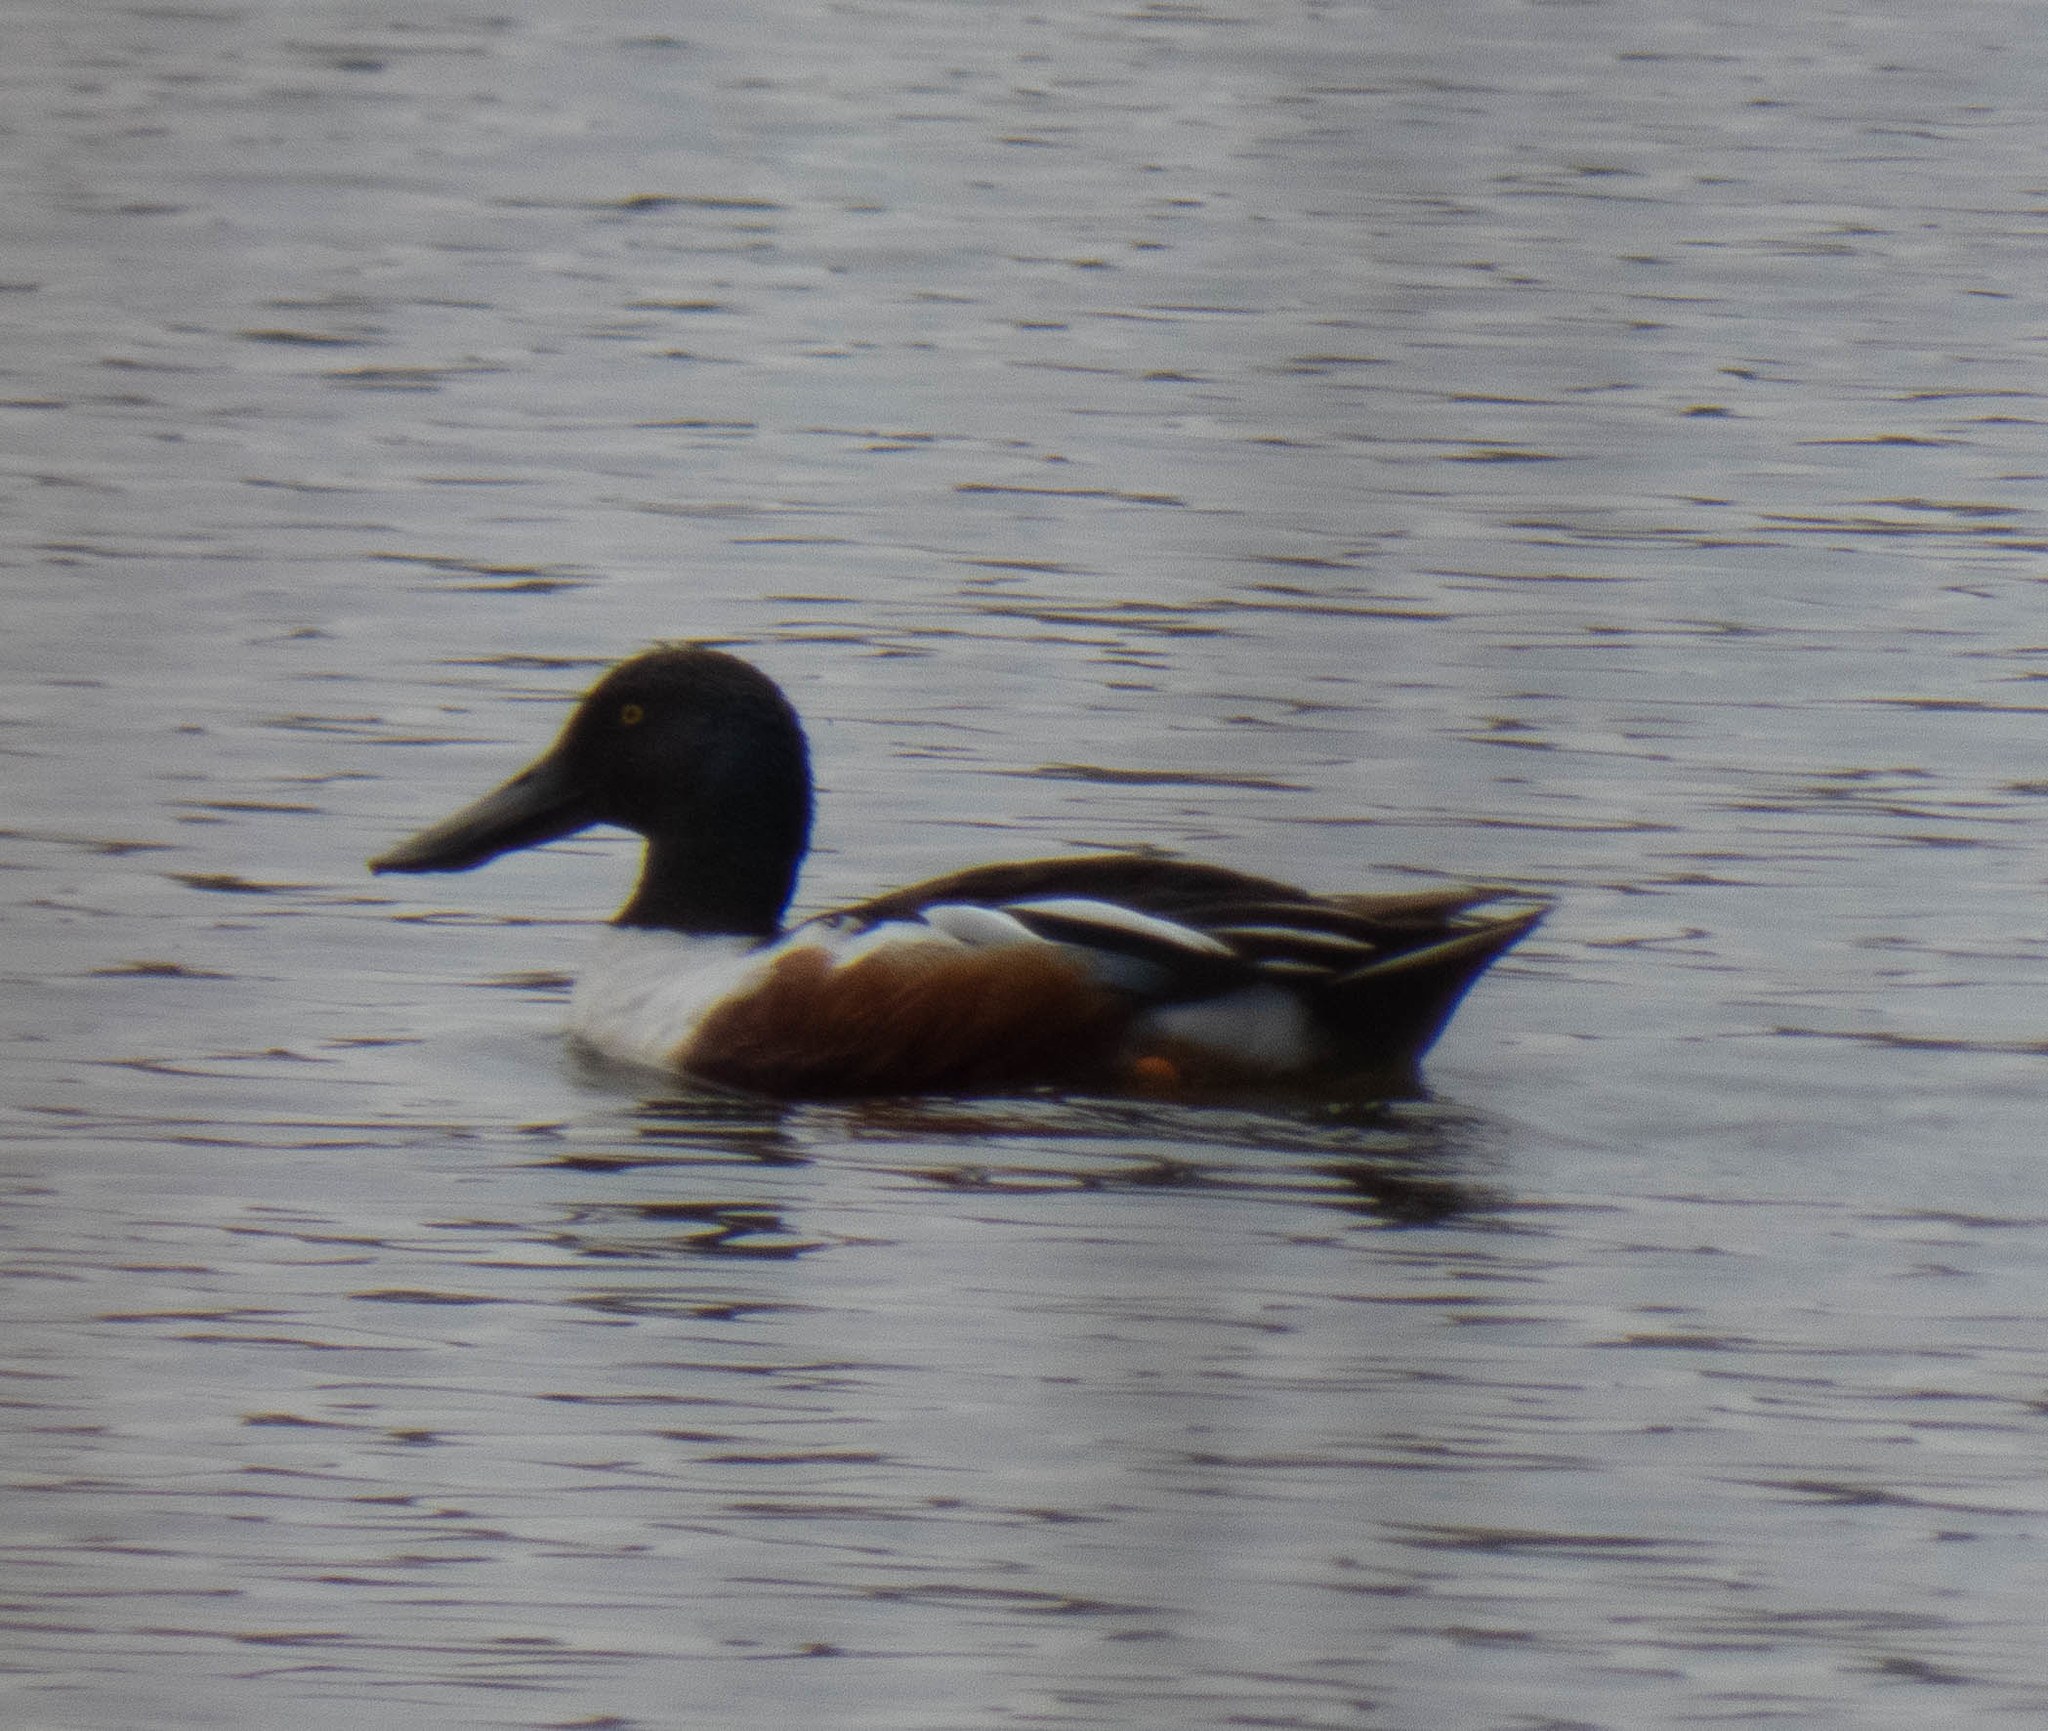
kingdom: Animalia
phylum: Chordata
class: Aves
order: Anseriformes
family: Anatidae
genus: Spatula
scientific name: Spatula clypeata
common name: Northern shoveler
